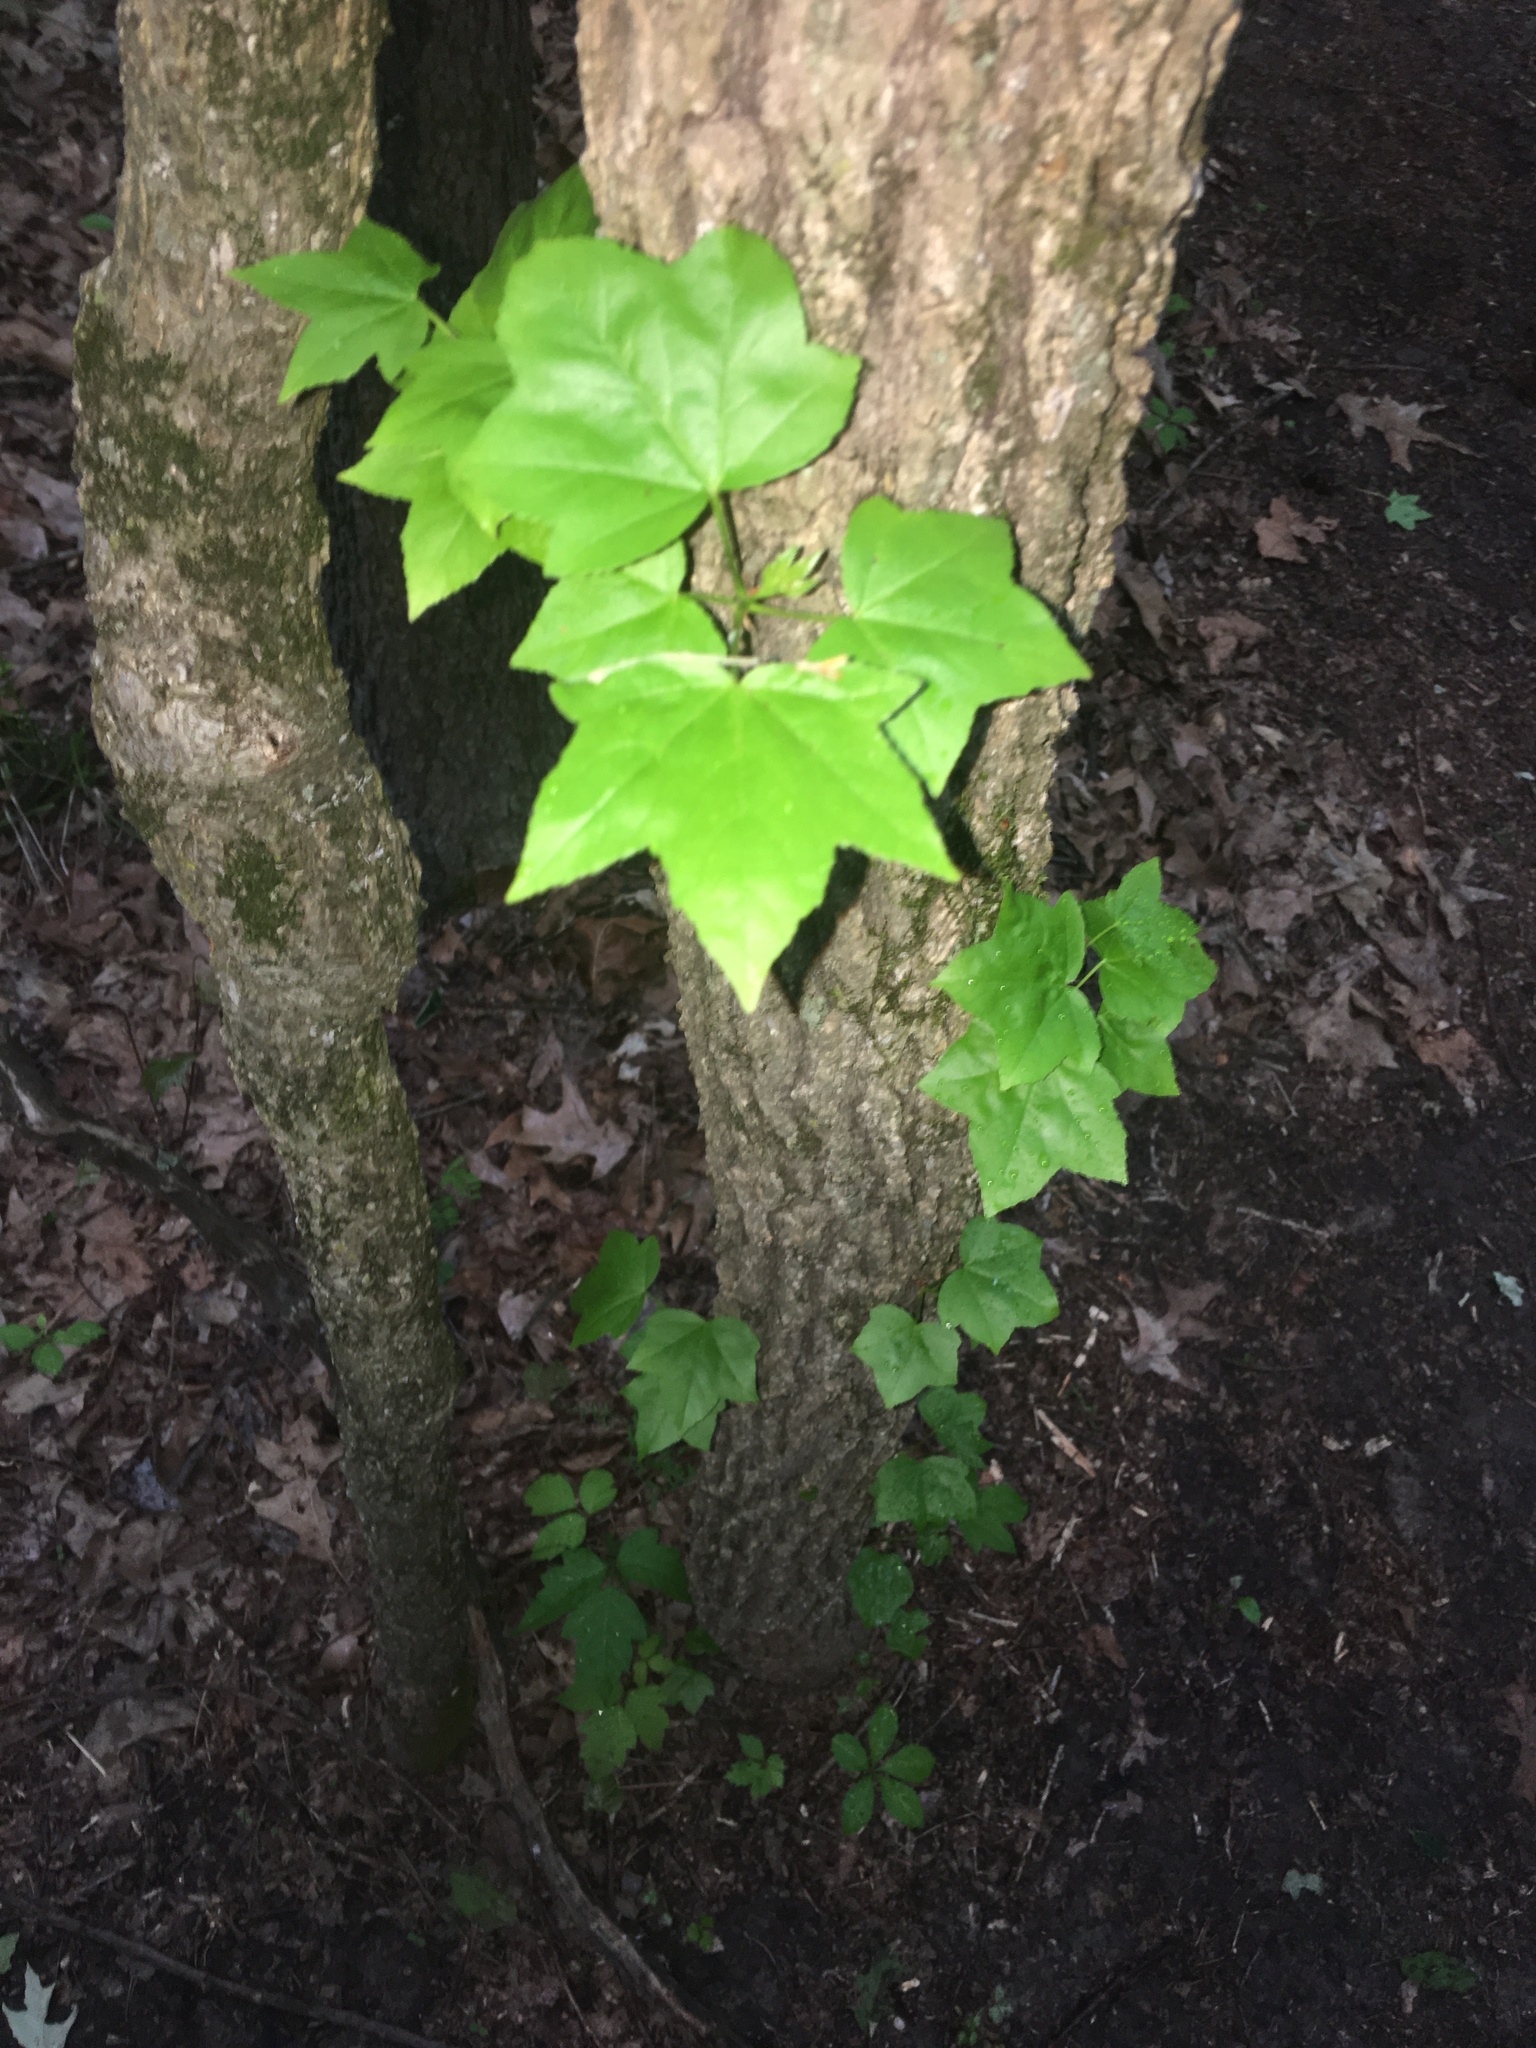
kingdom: Plantae
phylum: Tracheophyta
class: Magnoliopsida
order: Saxifragales
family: Altingiaceae
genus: Liquidambar
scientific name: Liquidambar styraciflua
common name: Sweet gum
